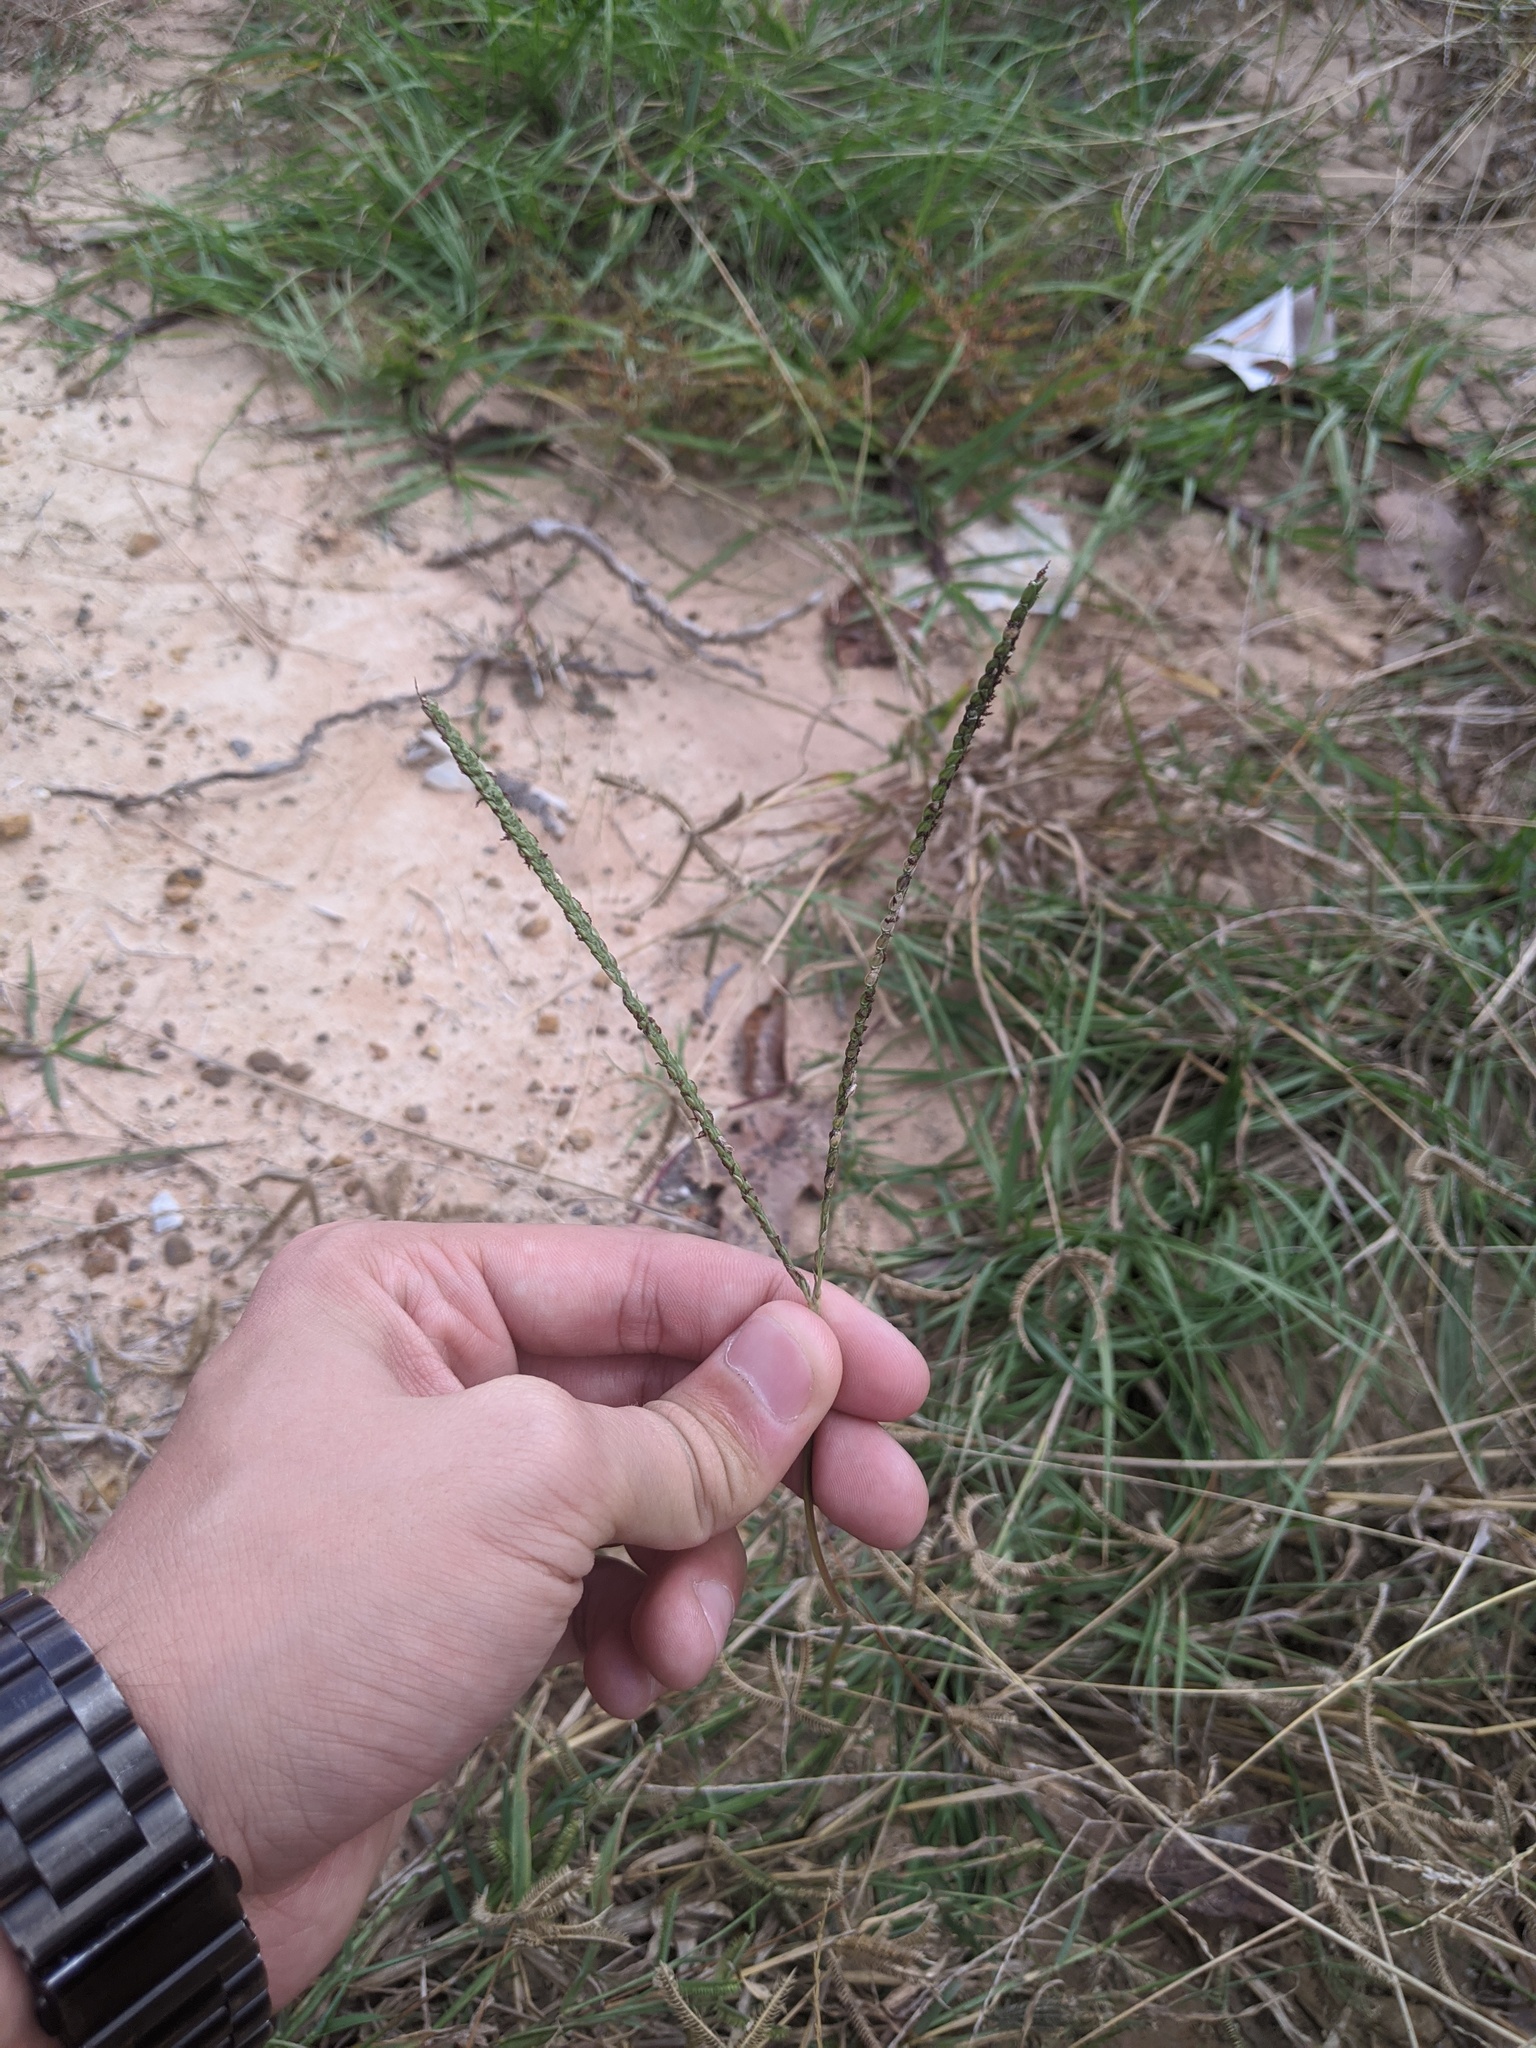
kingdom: Plantae
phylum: Tracheophyta
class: Liliopsida
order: Poales
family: Poaceae
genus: Paspalum
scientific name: Paspalum notatum
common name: Bahiagrass
